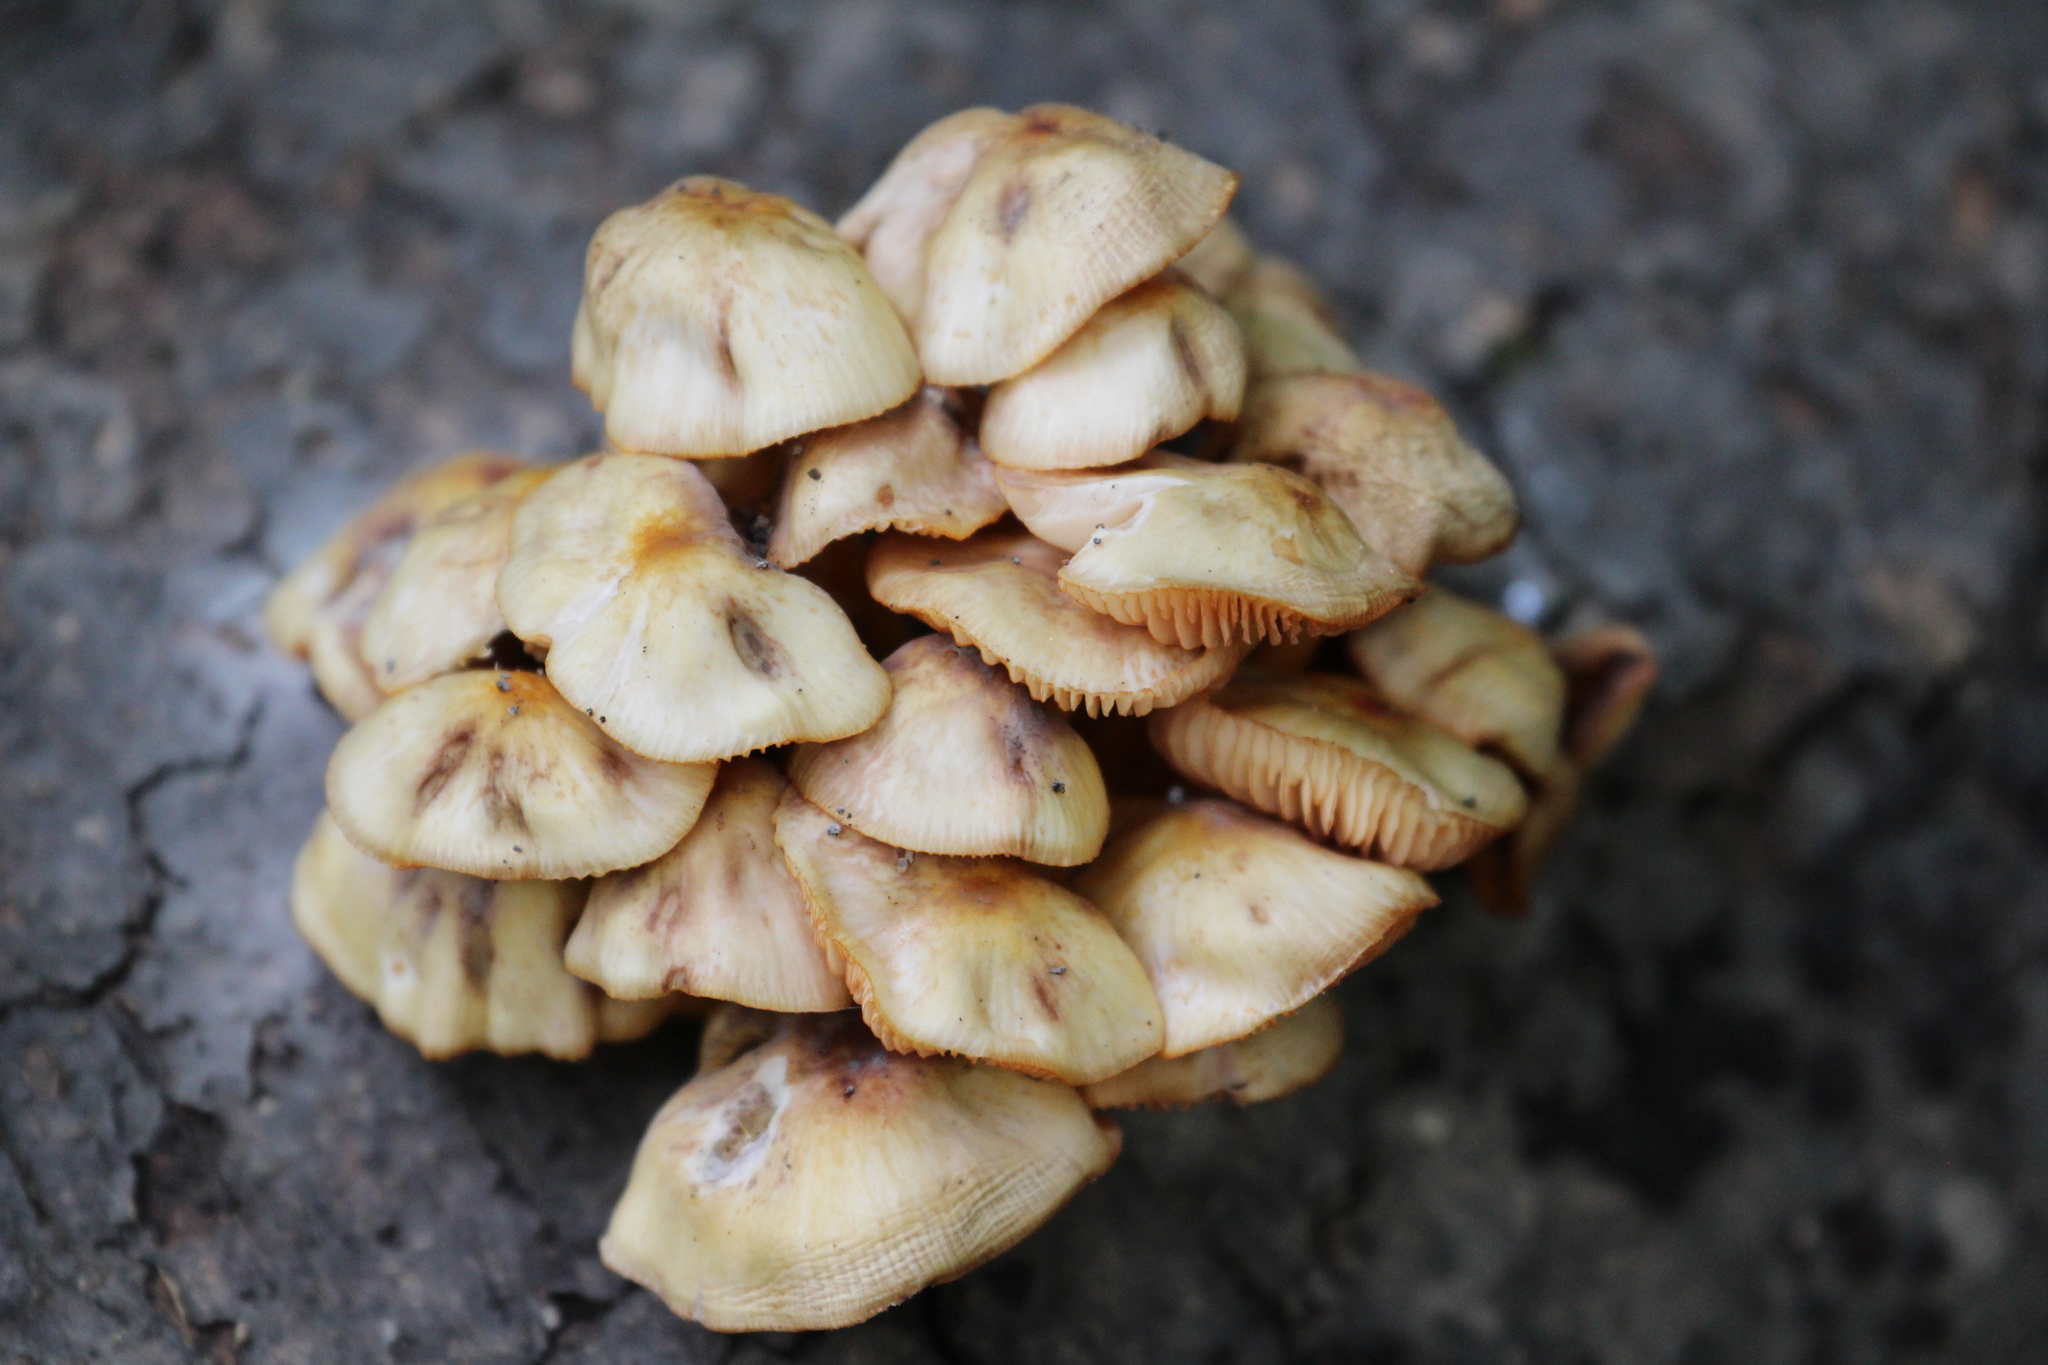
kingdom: Fungi
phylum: Basidiomycota
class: Agaricomycetes
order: Agaricales
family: Mycenaceae
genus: Mycena
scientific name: Mycena leaiana
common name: Orange mycena
